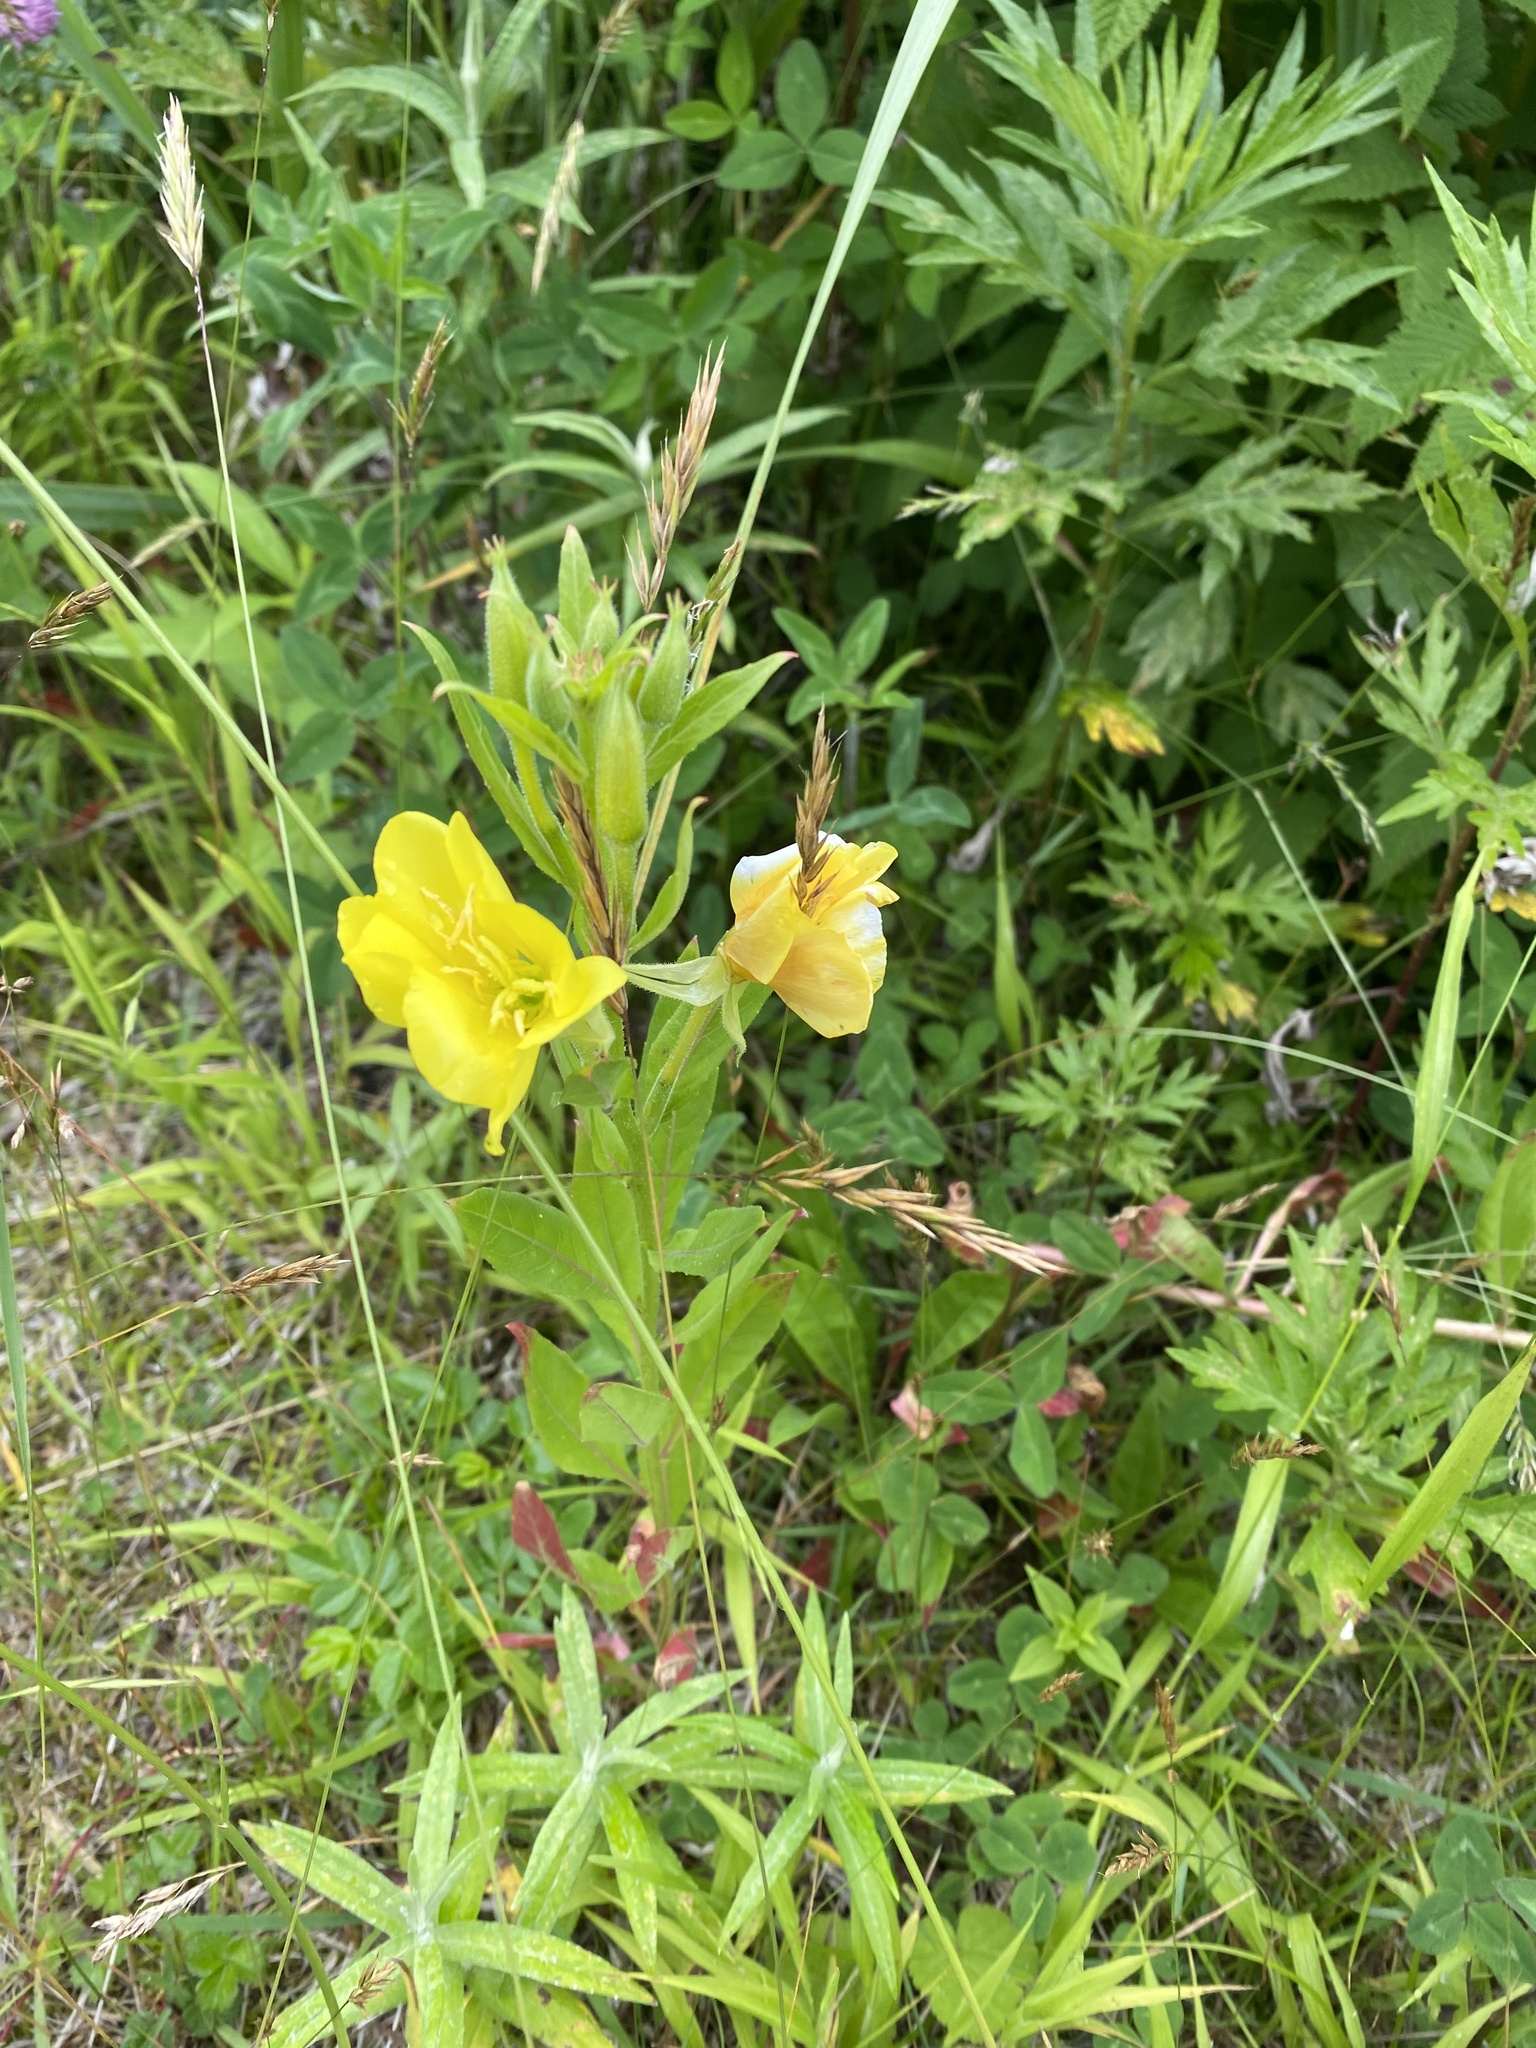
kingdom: Plantae
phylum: Tracheophyta
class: Magnoliopsida
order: Myrtales
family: Onagraceae
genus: Oenothera
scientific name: Oenothera biennis
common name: Common evening-primrose
